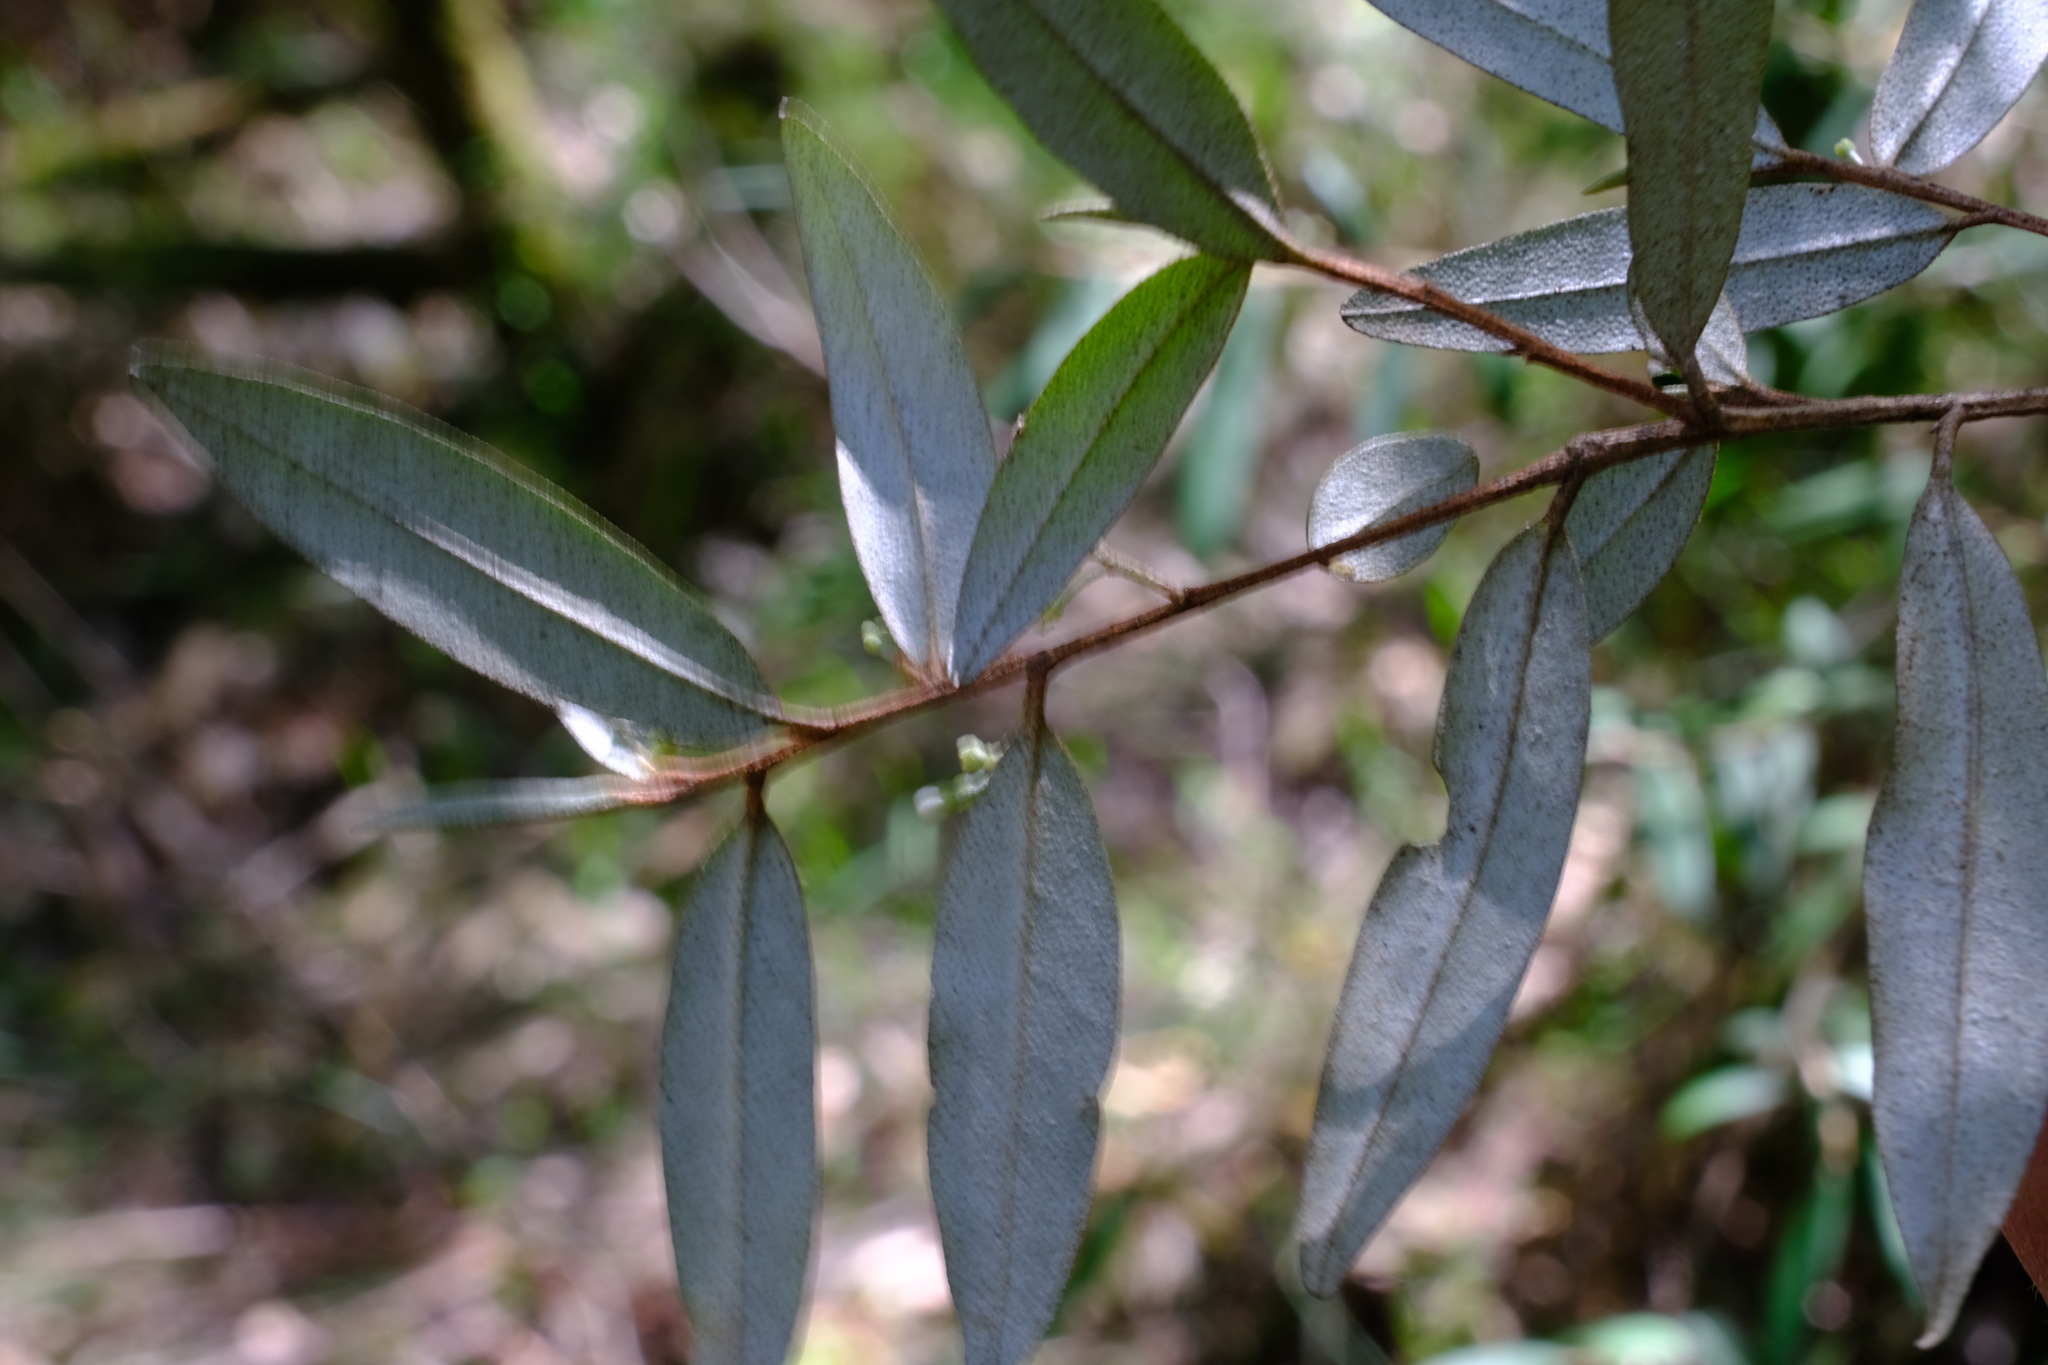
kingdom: Plantae
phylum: Tracheophyta
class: Magnoliopsida
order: Sapindales
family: Rutaceae
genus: Nematolepis
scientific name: Nematolepis squamea
